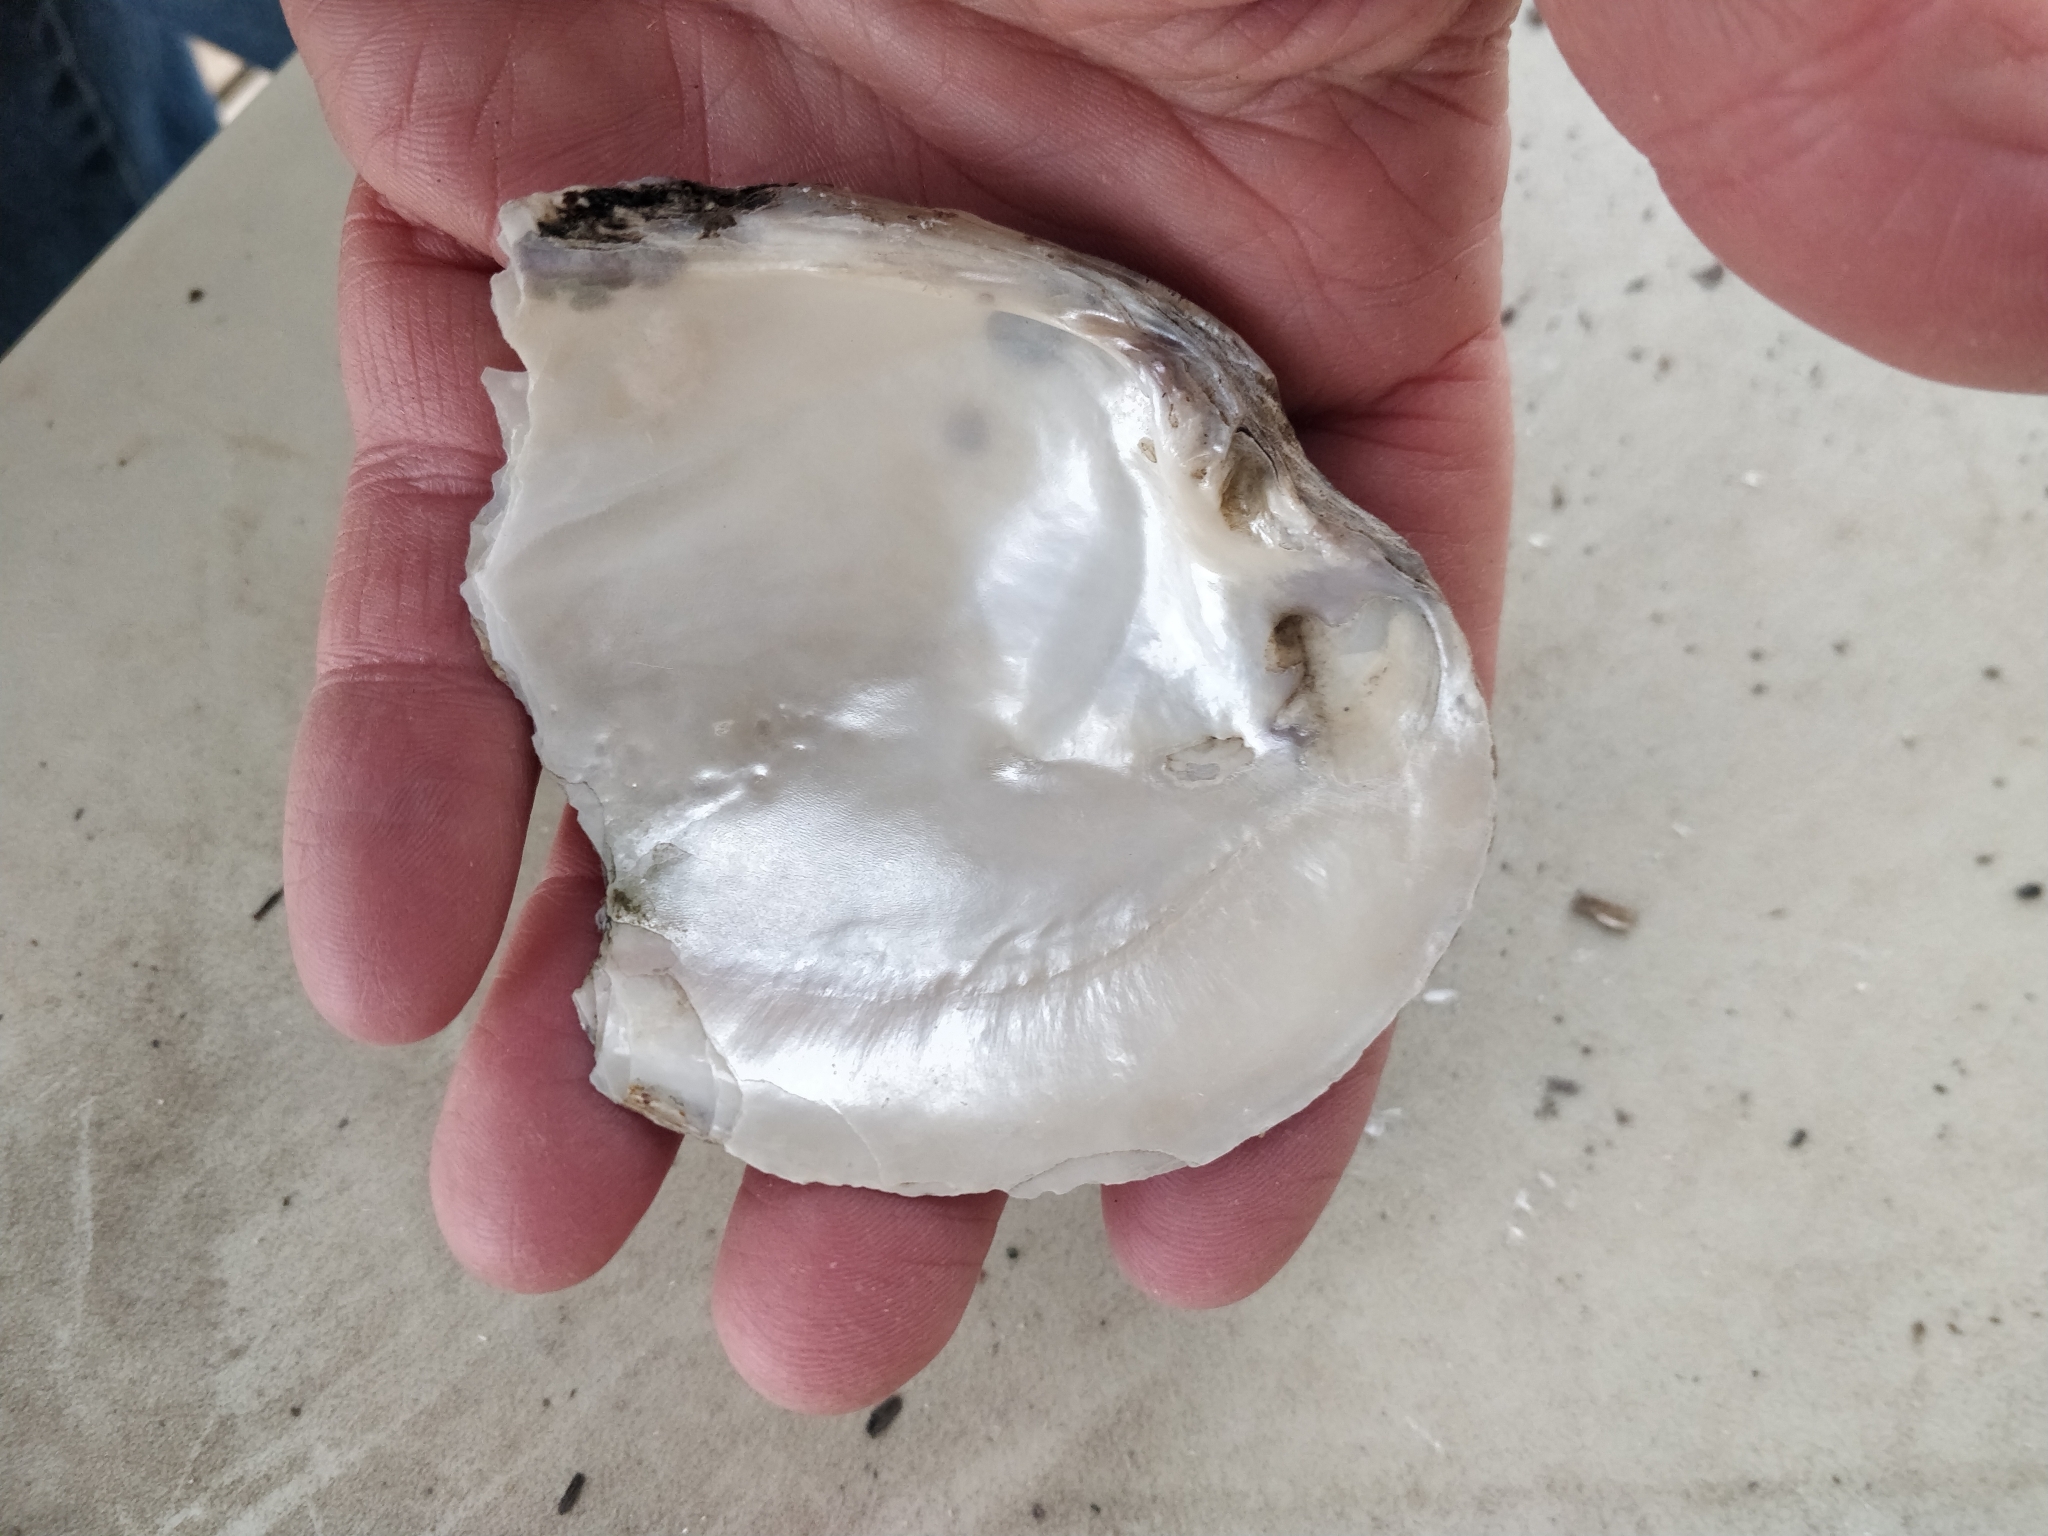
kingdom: Animalia
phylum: Mollusca
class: Bivalvia
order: Unionida
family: Unionidae
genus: Lasmigona
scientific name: Lasmigona complanata
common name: White heelsplitter
